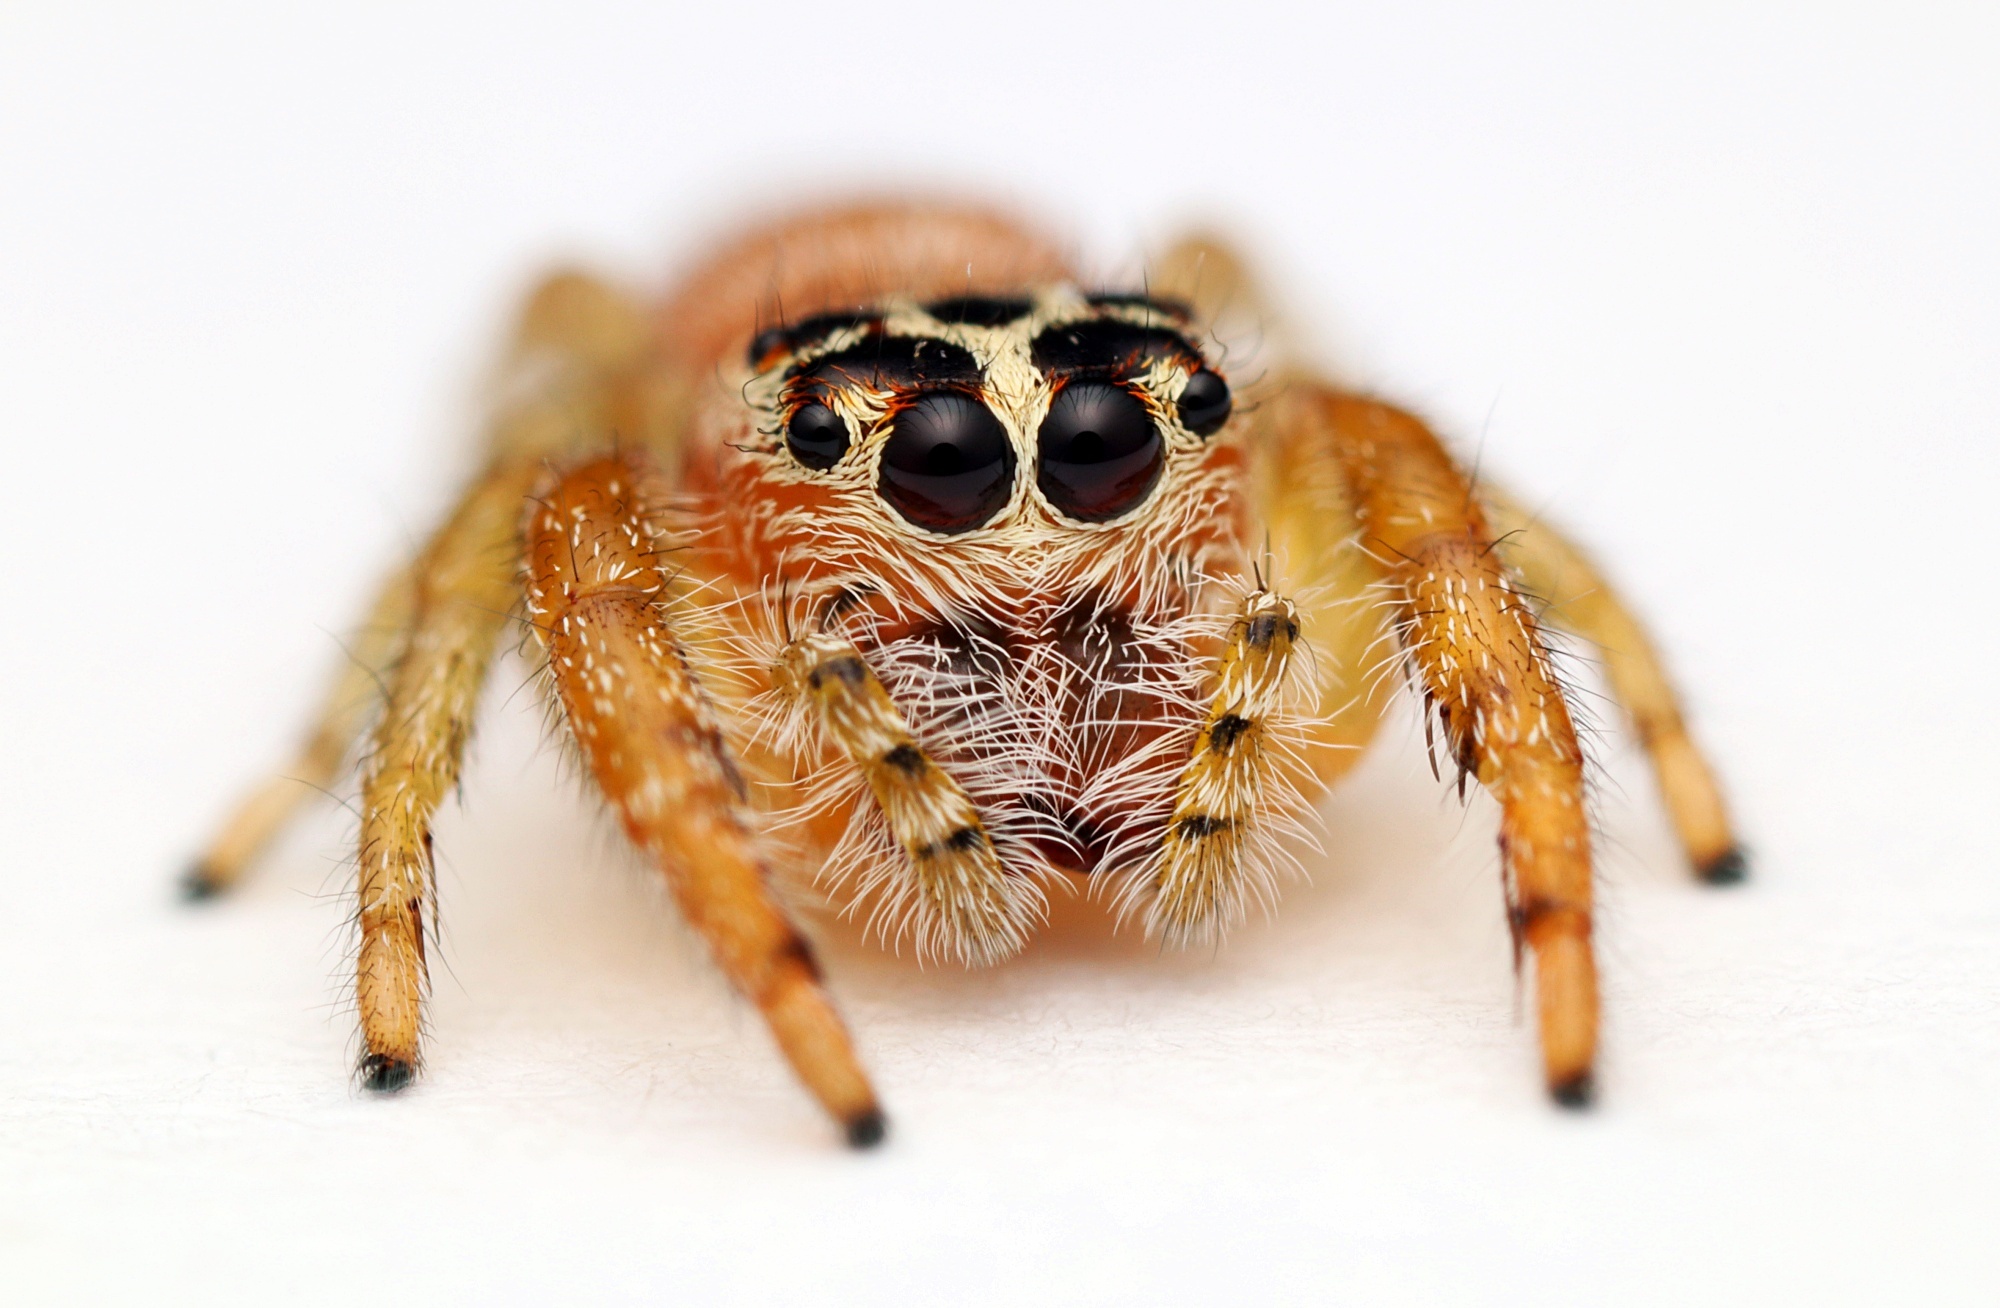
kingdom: Animalia
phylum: Arthropoda
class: Arachnida
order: Araneae
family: Salticidae
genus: Opisthoncus
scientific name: Opisthoncus polyphemus
